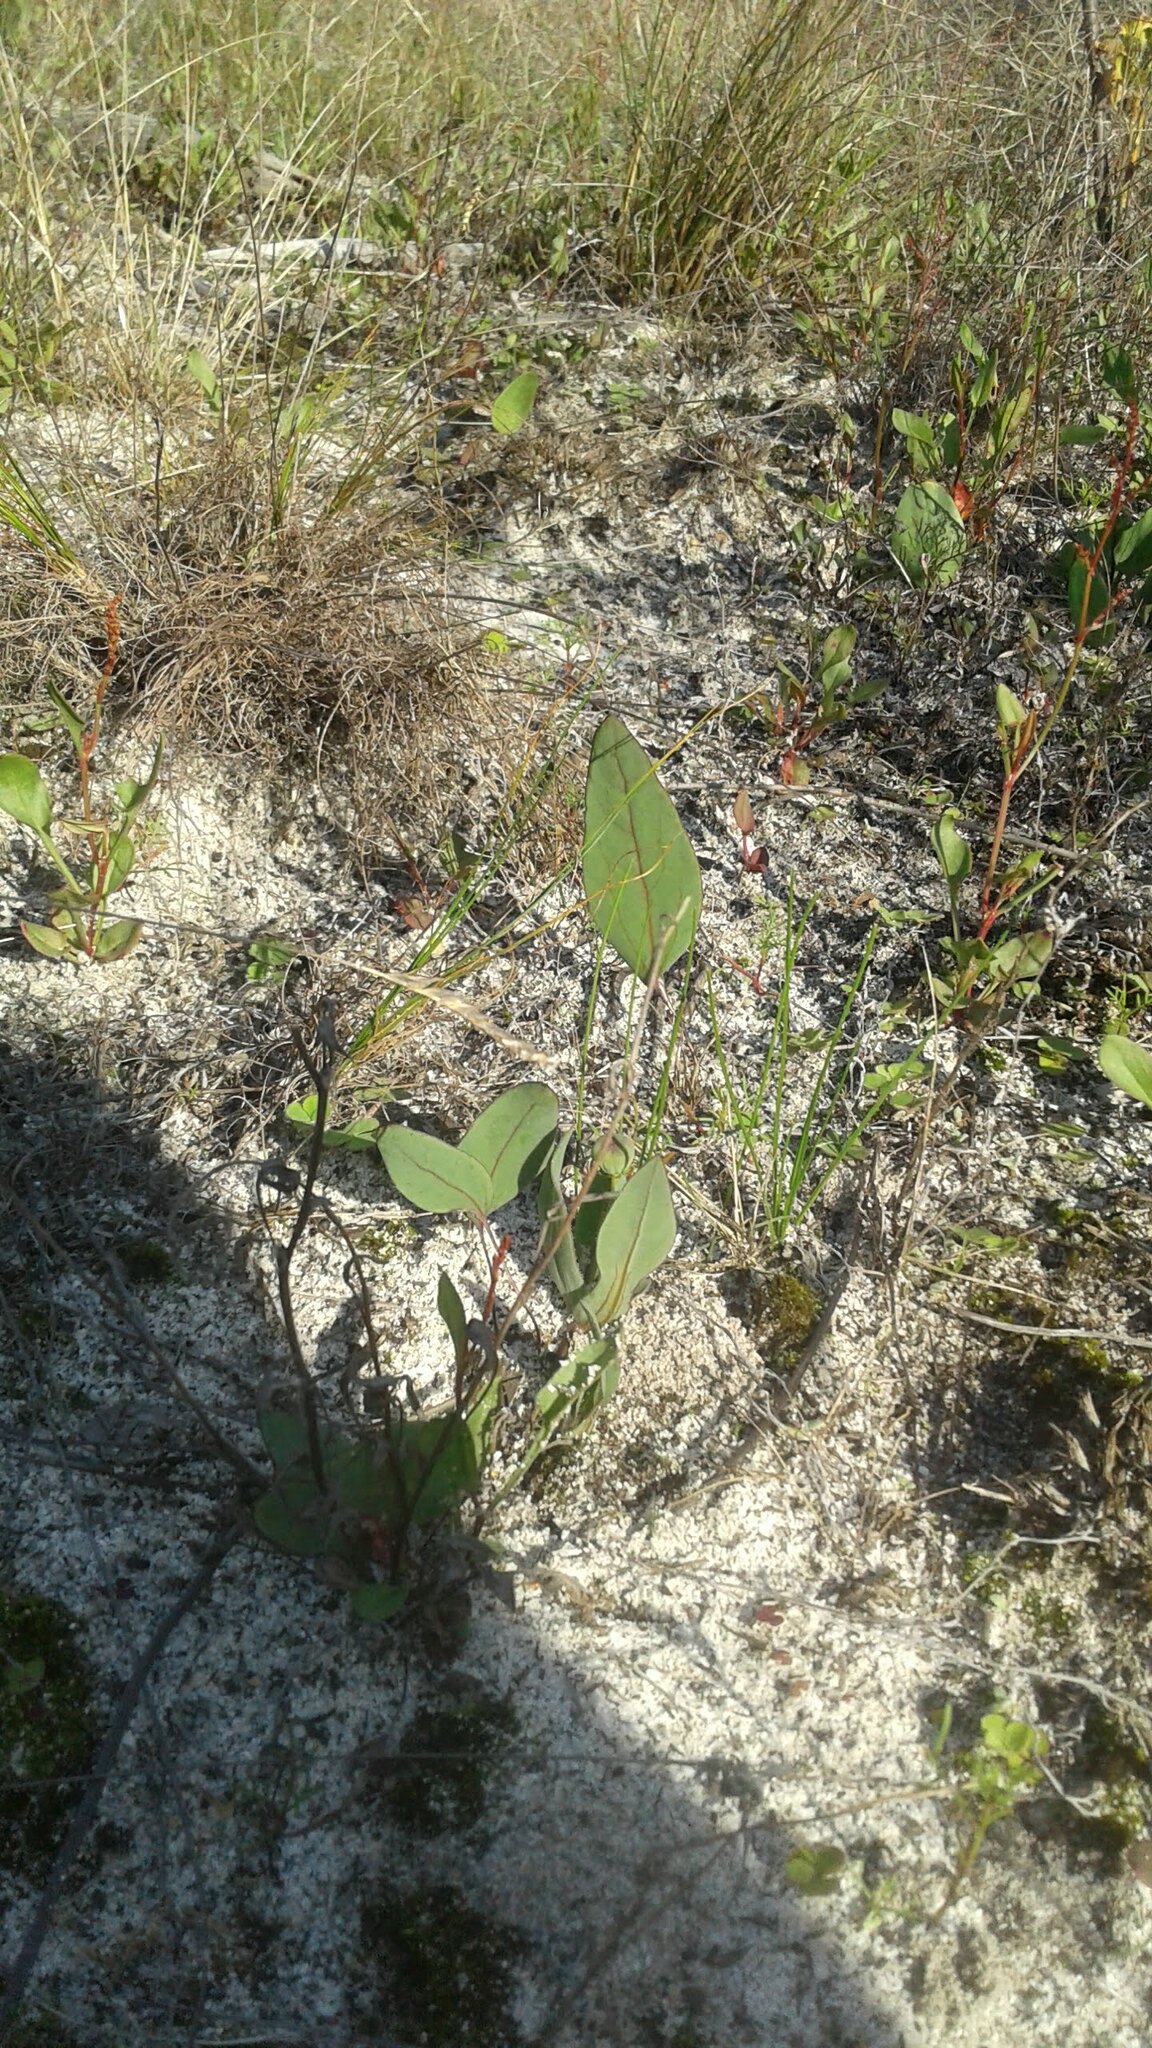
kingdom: Plantae
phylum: Tracheophyta
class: Magnoliopsida
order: Asterales
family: Asteraceae
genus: Othonna
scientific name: Othonna bulbosa
